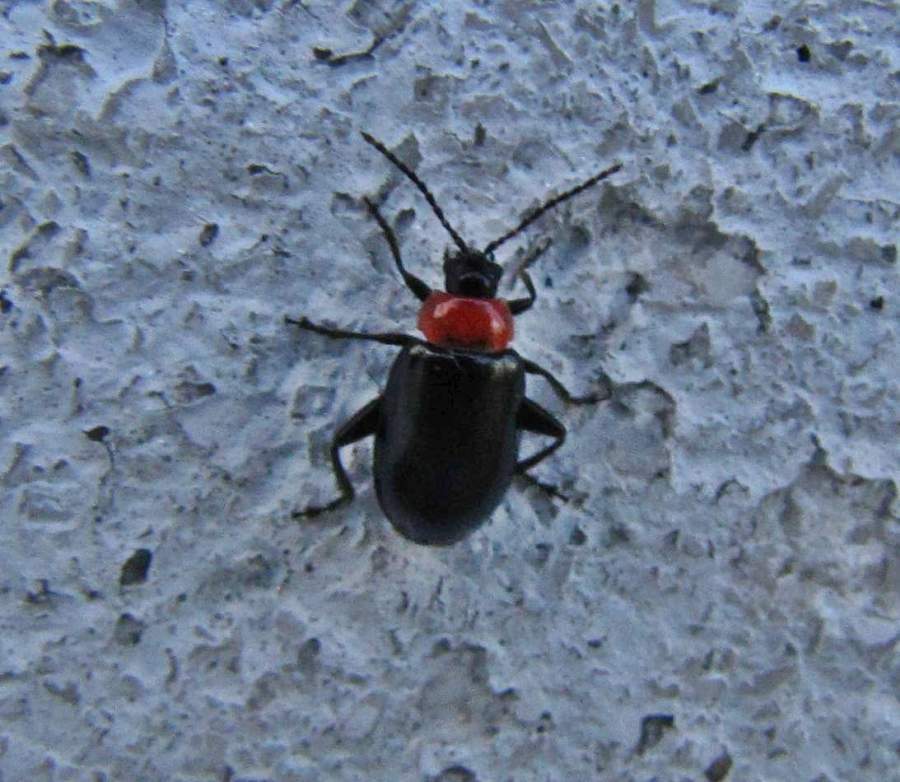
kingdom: Animalia
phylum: Arthropoda
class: Insecta
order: Coleoptera
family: Chrysomelidae
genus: Disonycha
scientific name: Disonycha xanthomelas
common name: Spinach flea beetle
